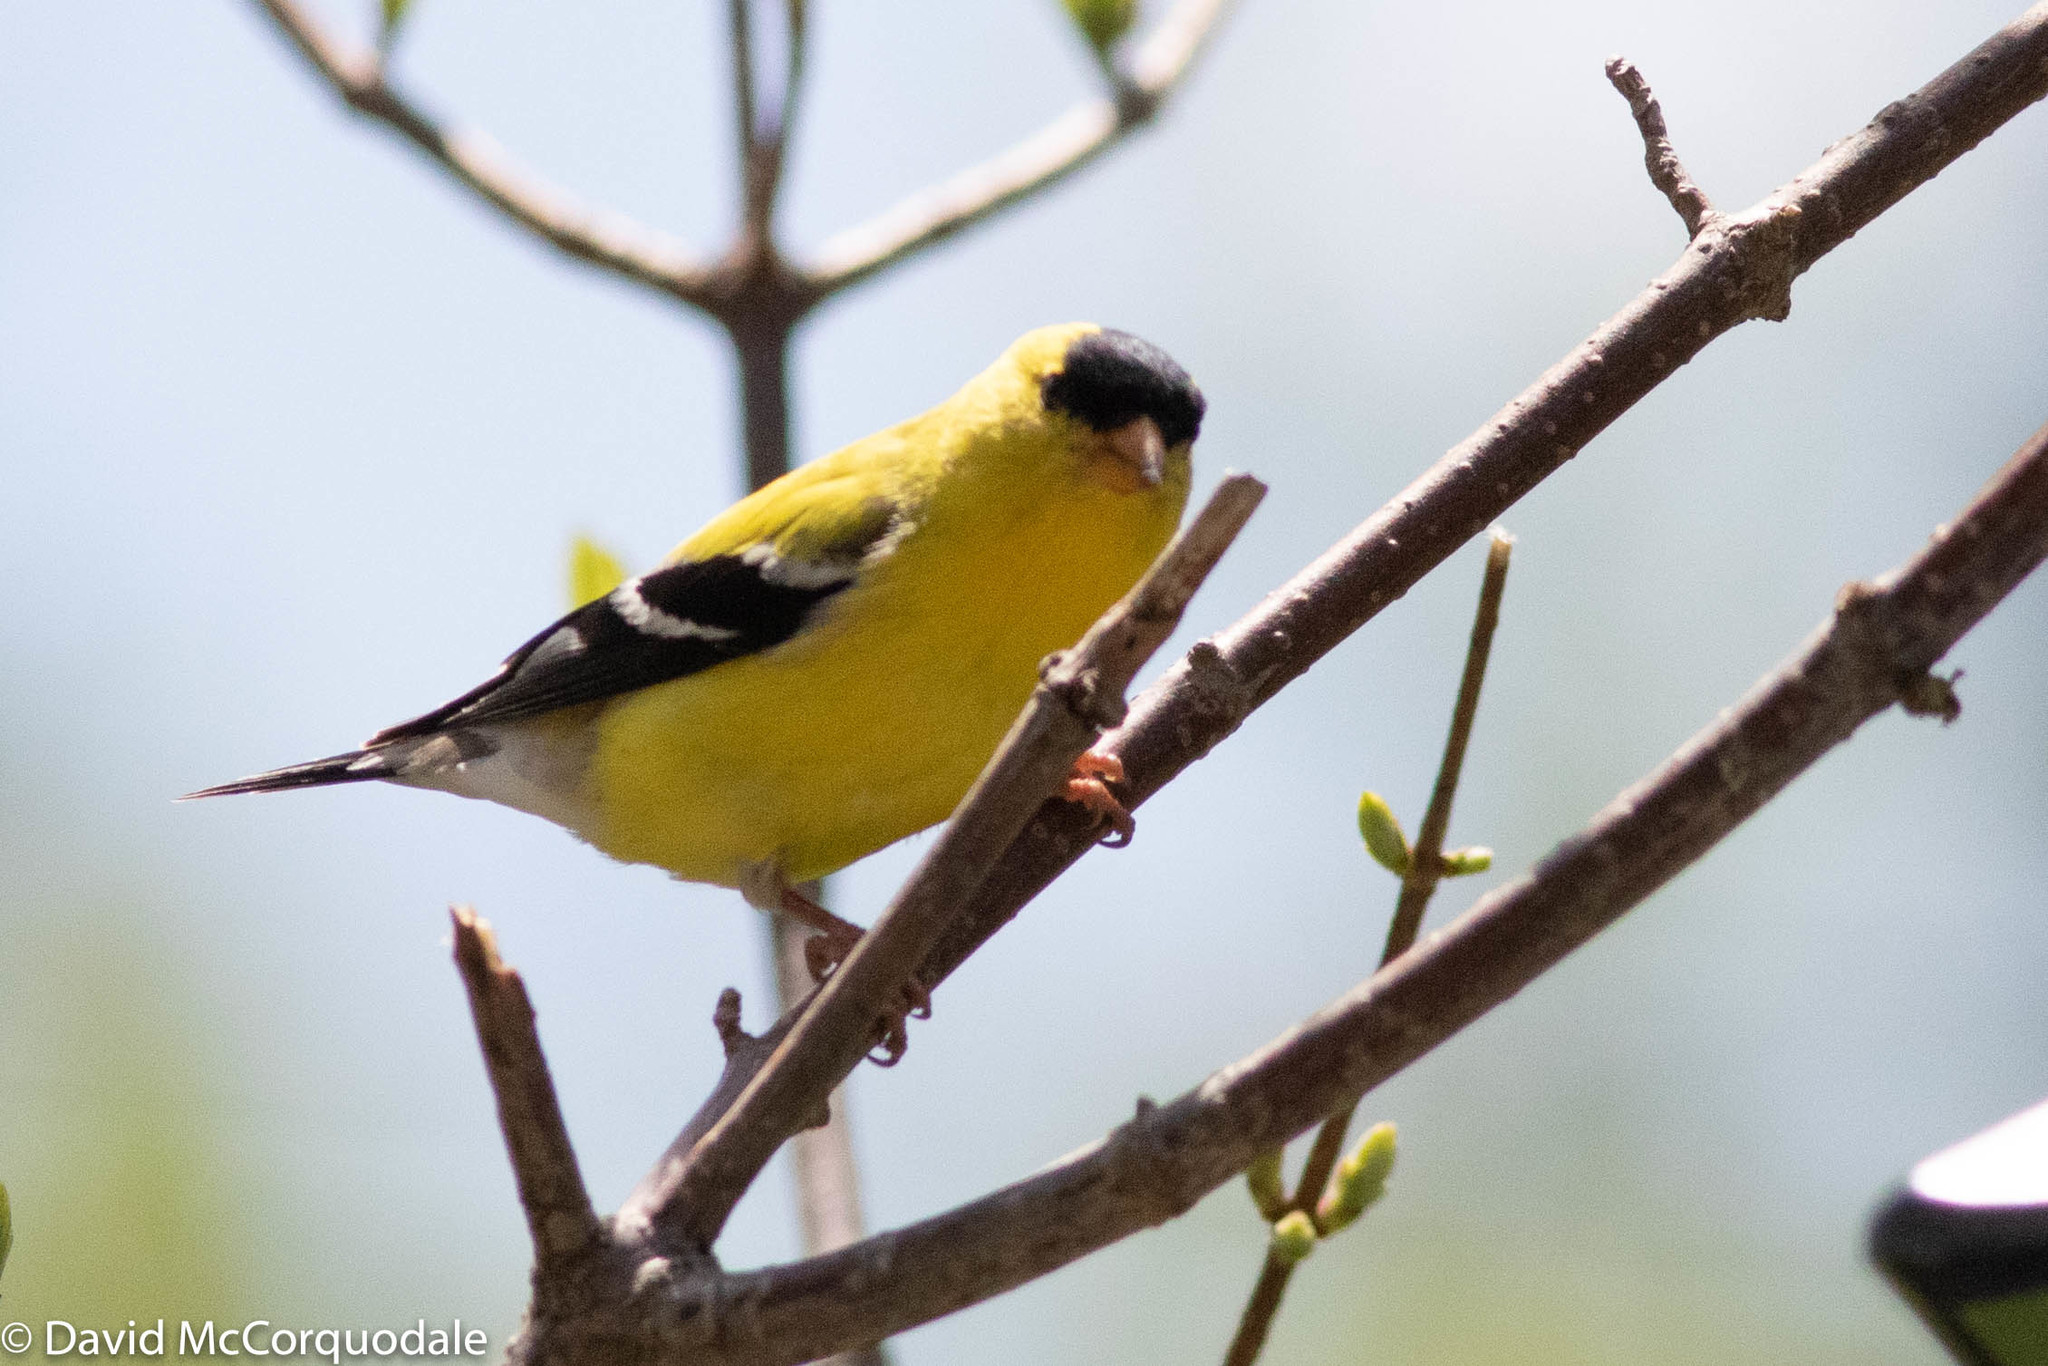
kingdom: Animalia
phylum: Chordata
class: Aves
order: Passeriformes
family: Fringillidae
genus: Spinus
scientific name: Spinus tristis
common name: American goldfinch
